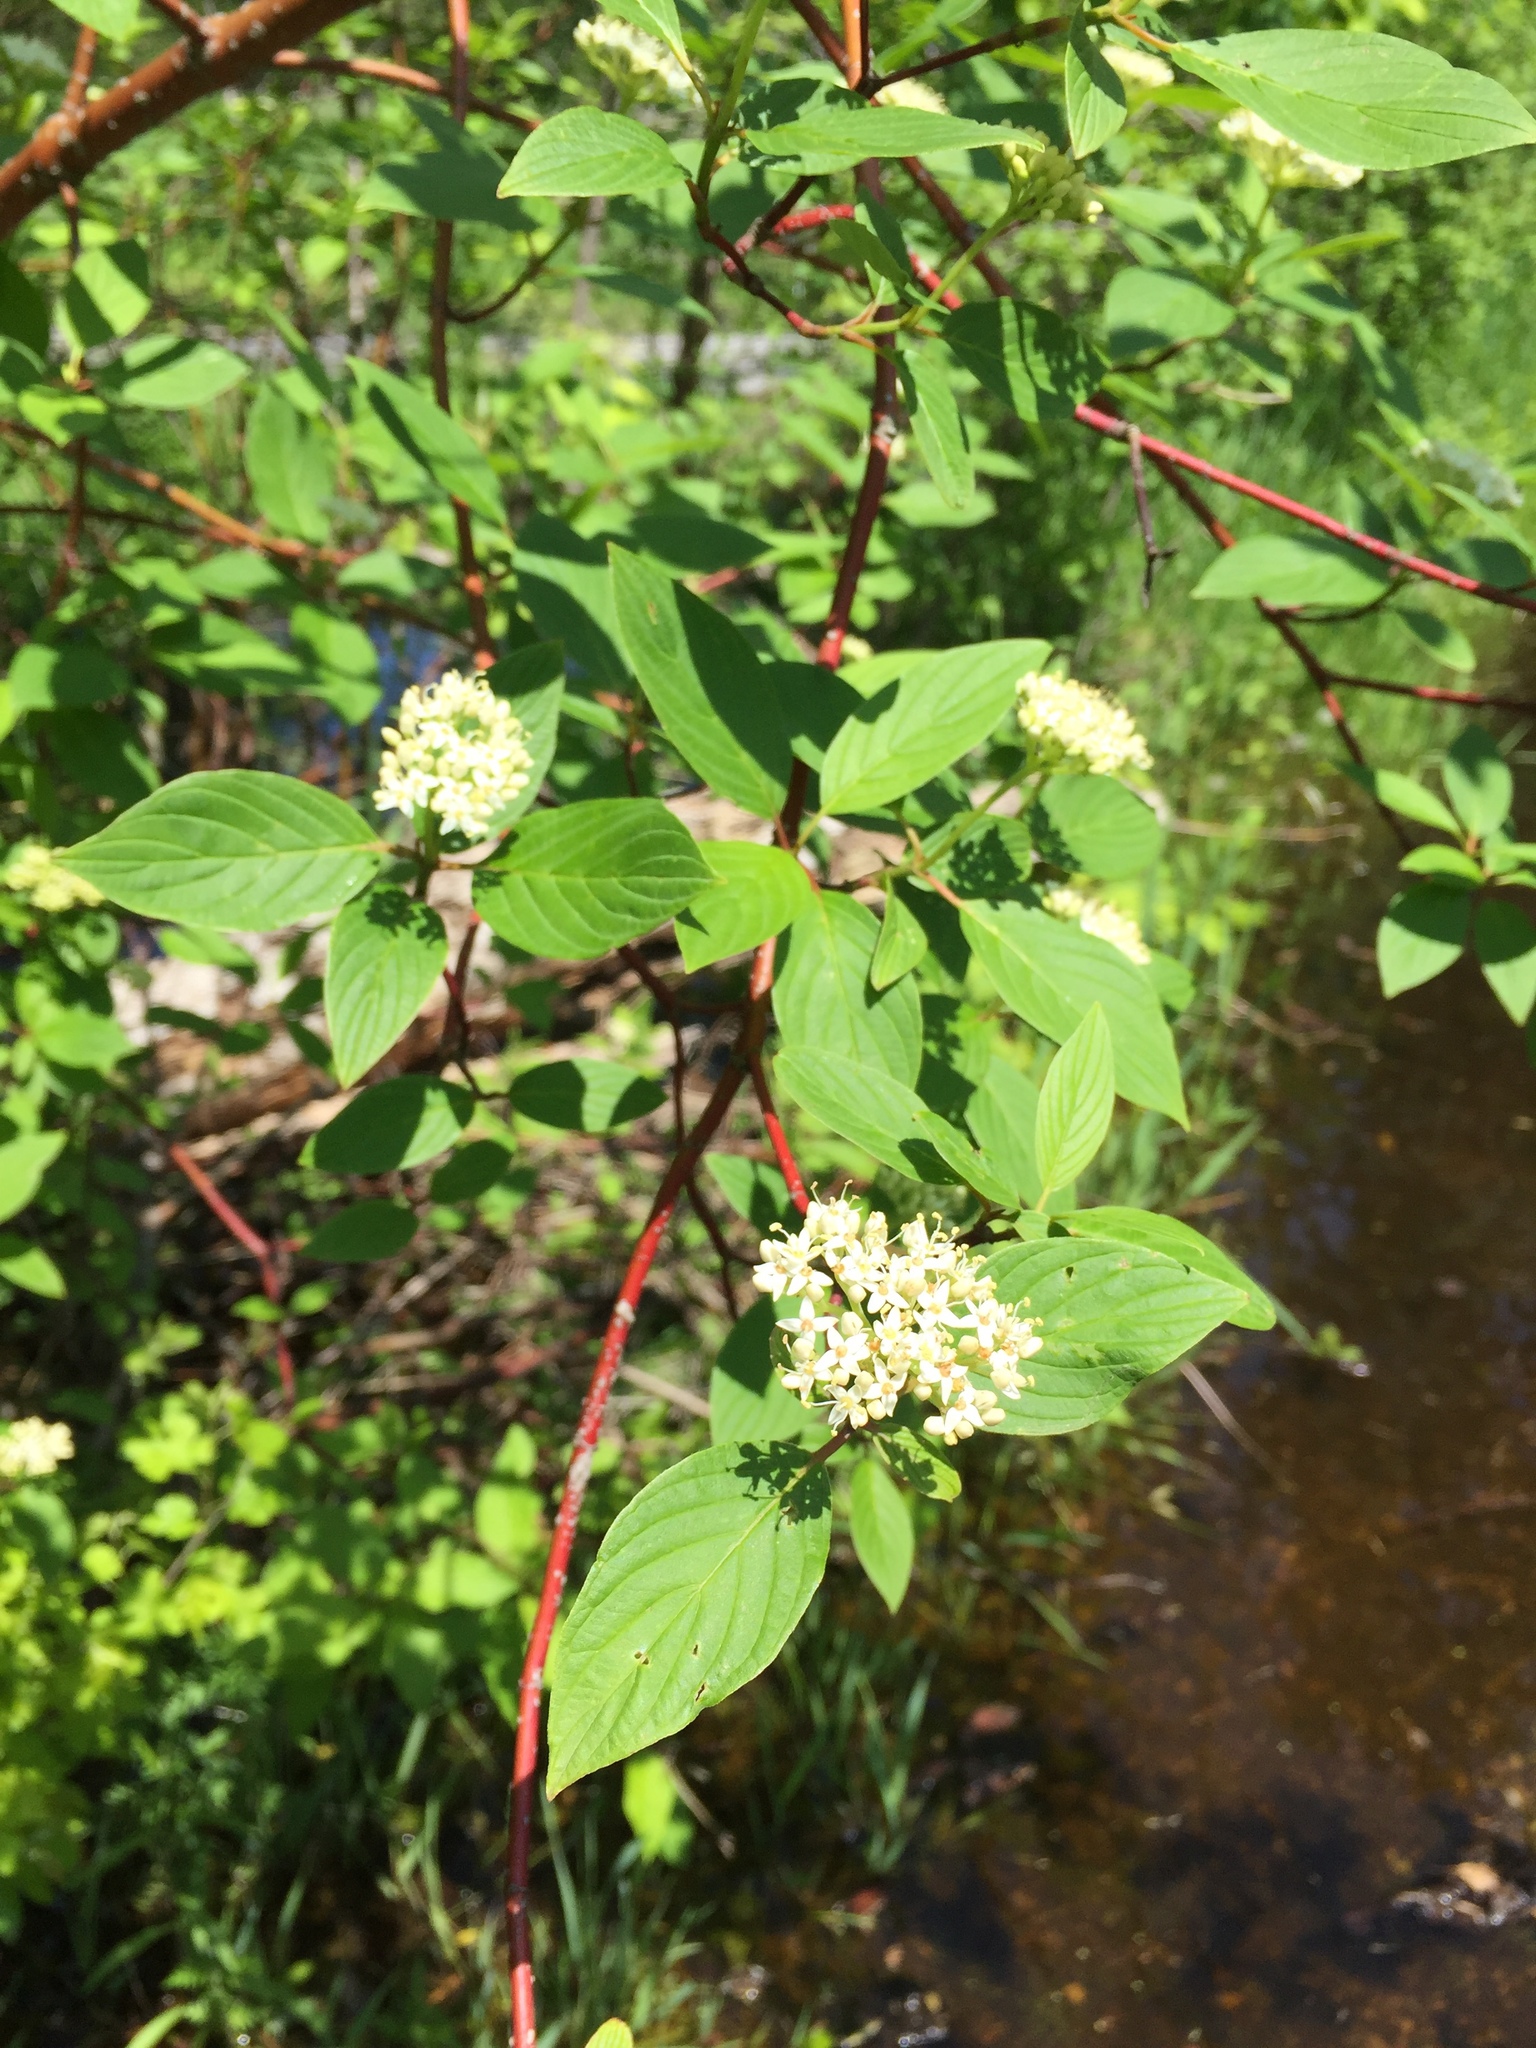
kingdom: Plantae
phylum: Tracheophyta
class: Magnoliopsida
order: Cornales
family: Cornaceae
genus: Cornus
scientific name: Cornus sericea
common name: Red-osier dogwood
